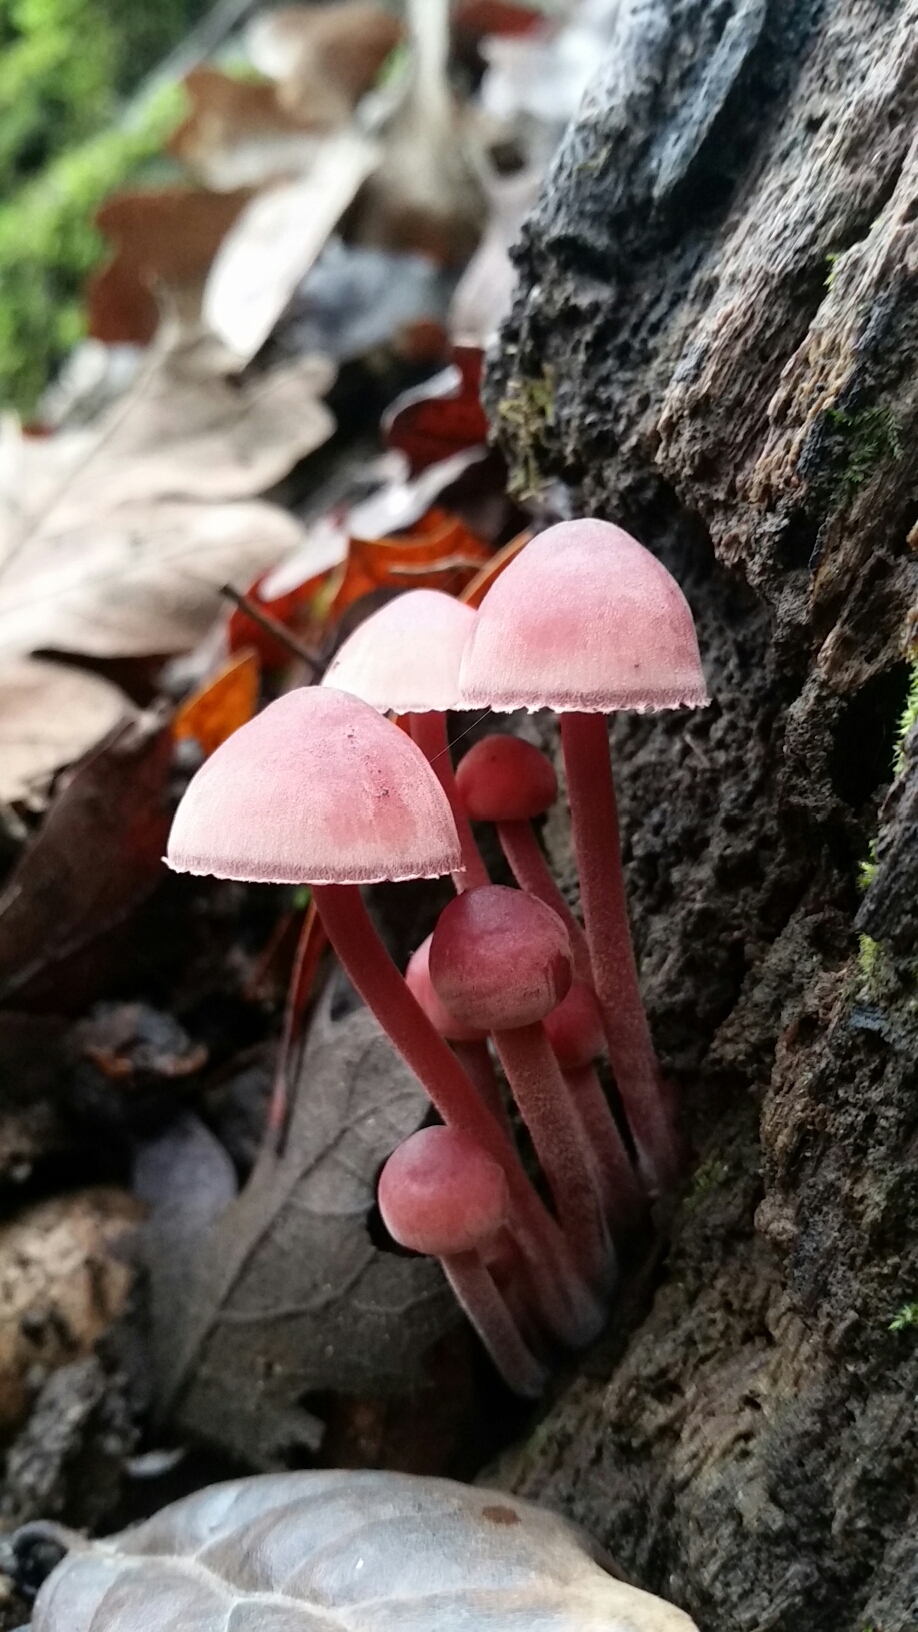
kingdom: Fungi
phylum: Basidiomycota
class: Agaricomycetes
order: Agaricales
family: Mycenaceae
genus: Mycena
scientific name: Mycena haematopus
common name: Burgundydrop bonnet
